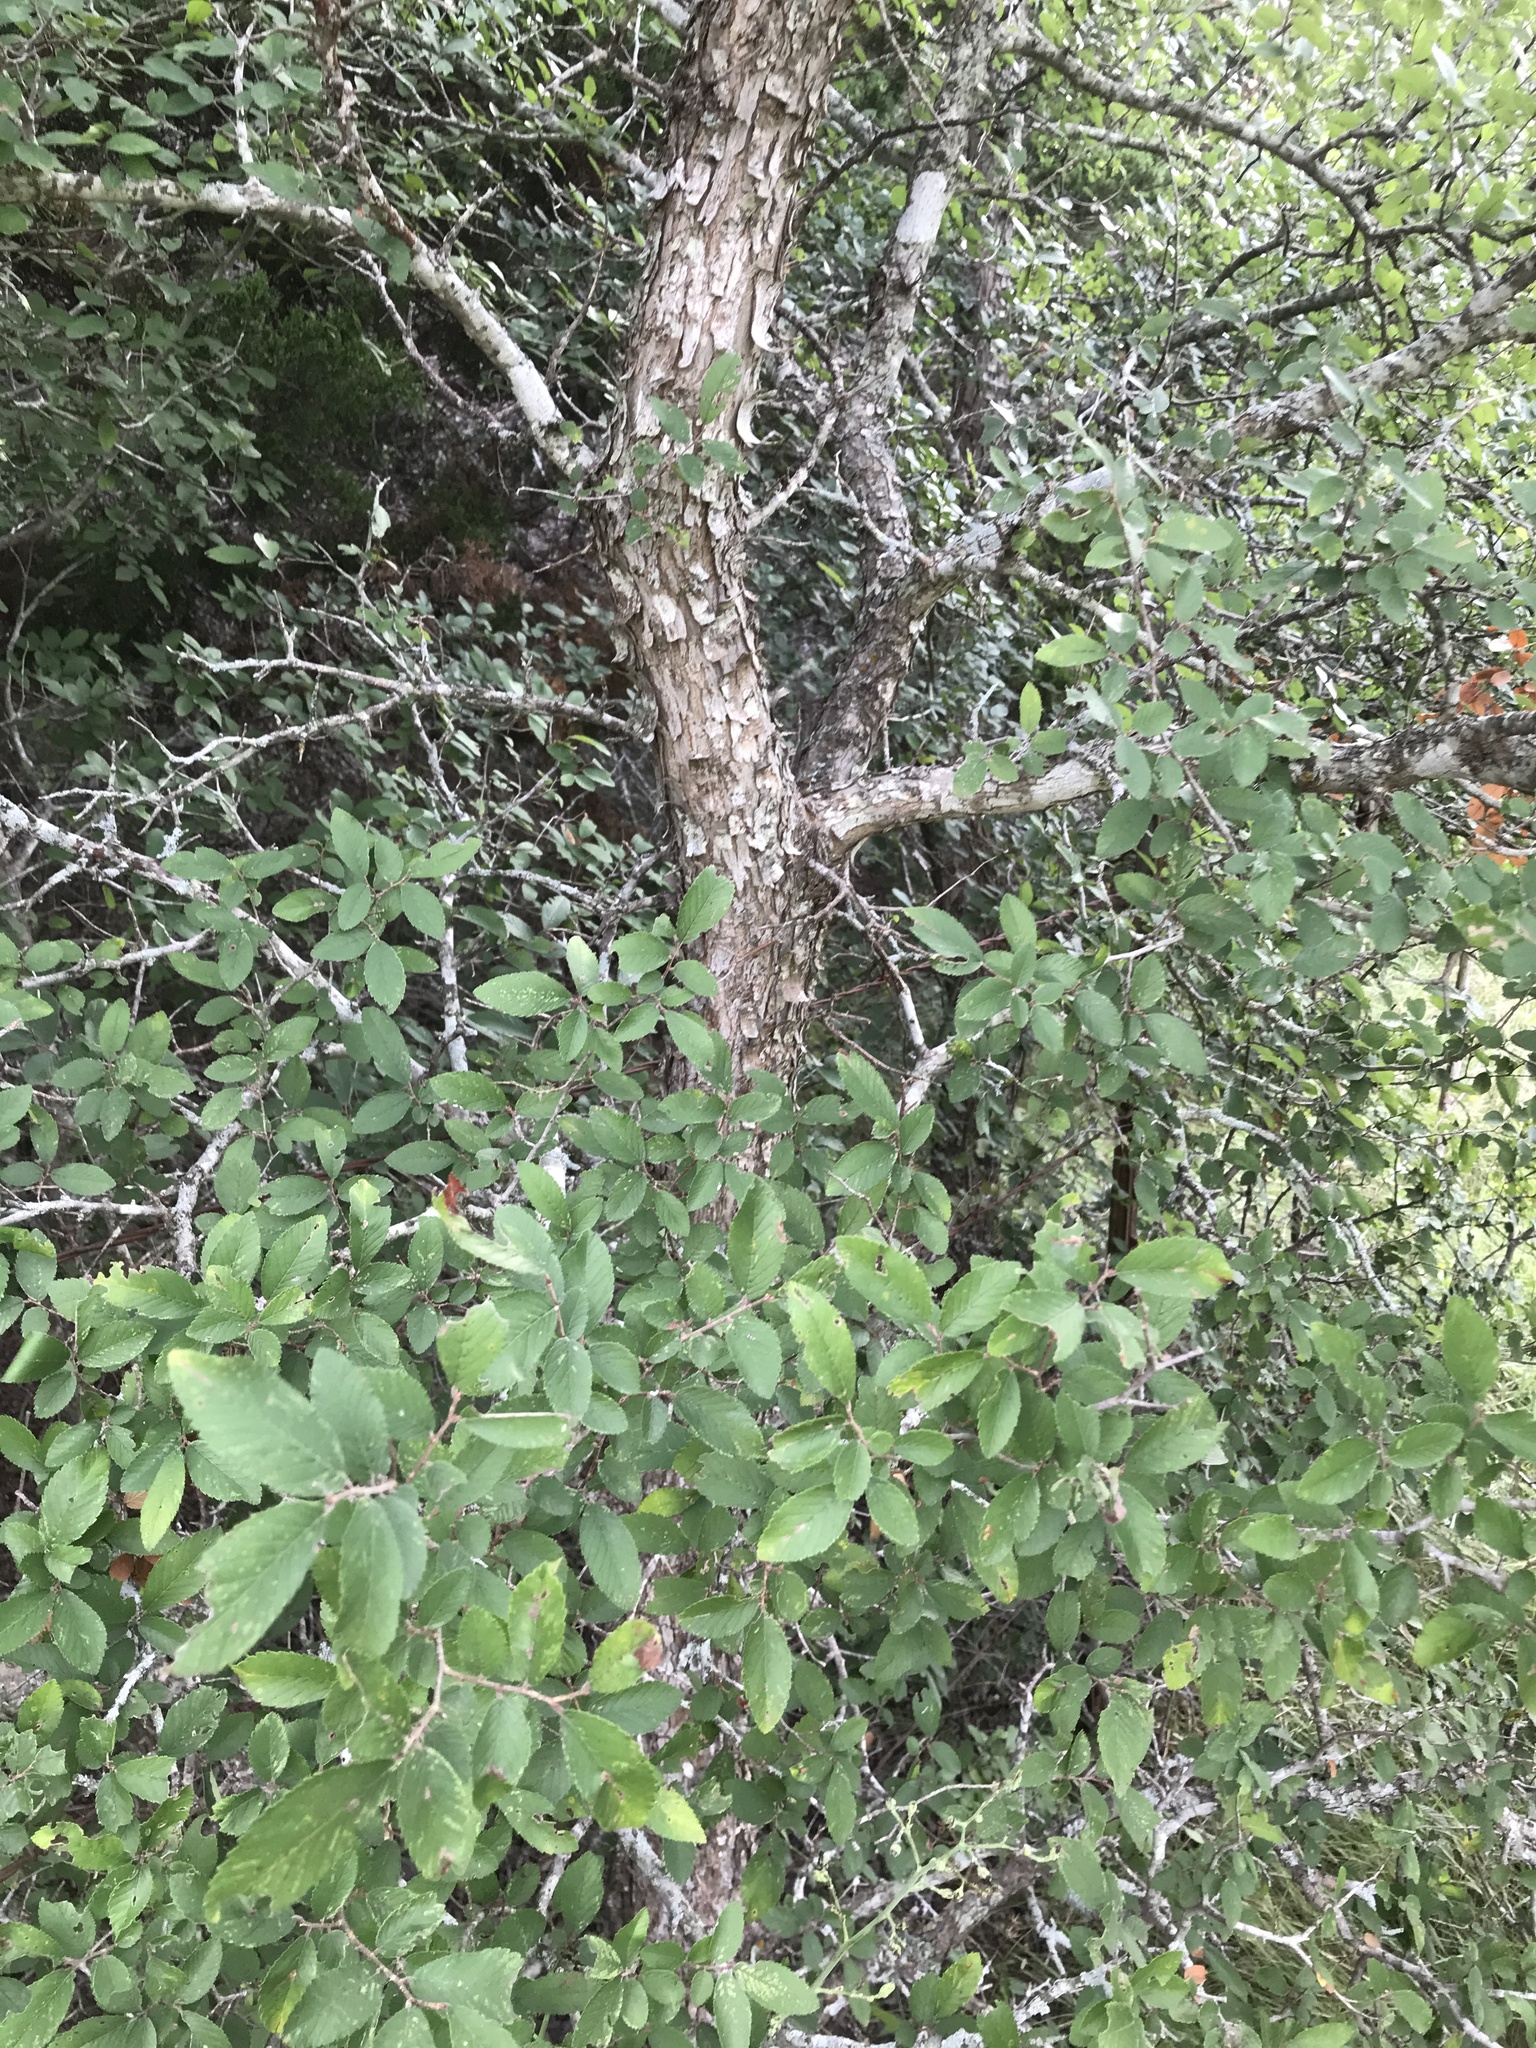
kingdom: Plantae
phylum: Tracheophyta
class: Magnoliopsida
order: Rosales
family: Ulmaceae
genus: Ulmus
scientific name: Ulmus crassifolia
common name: Basket elm
